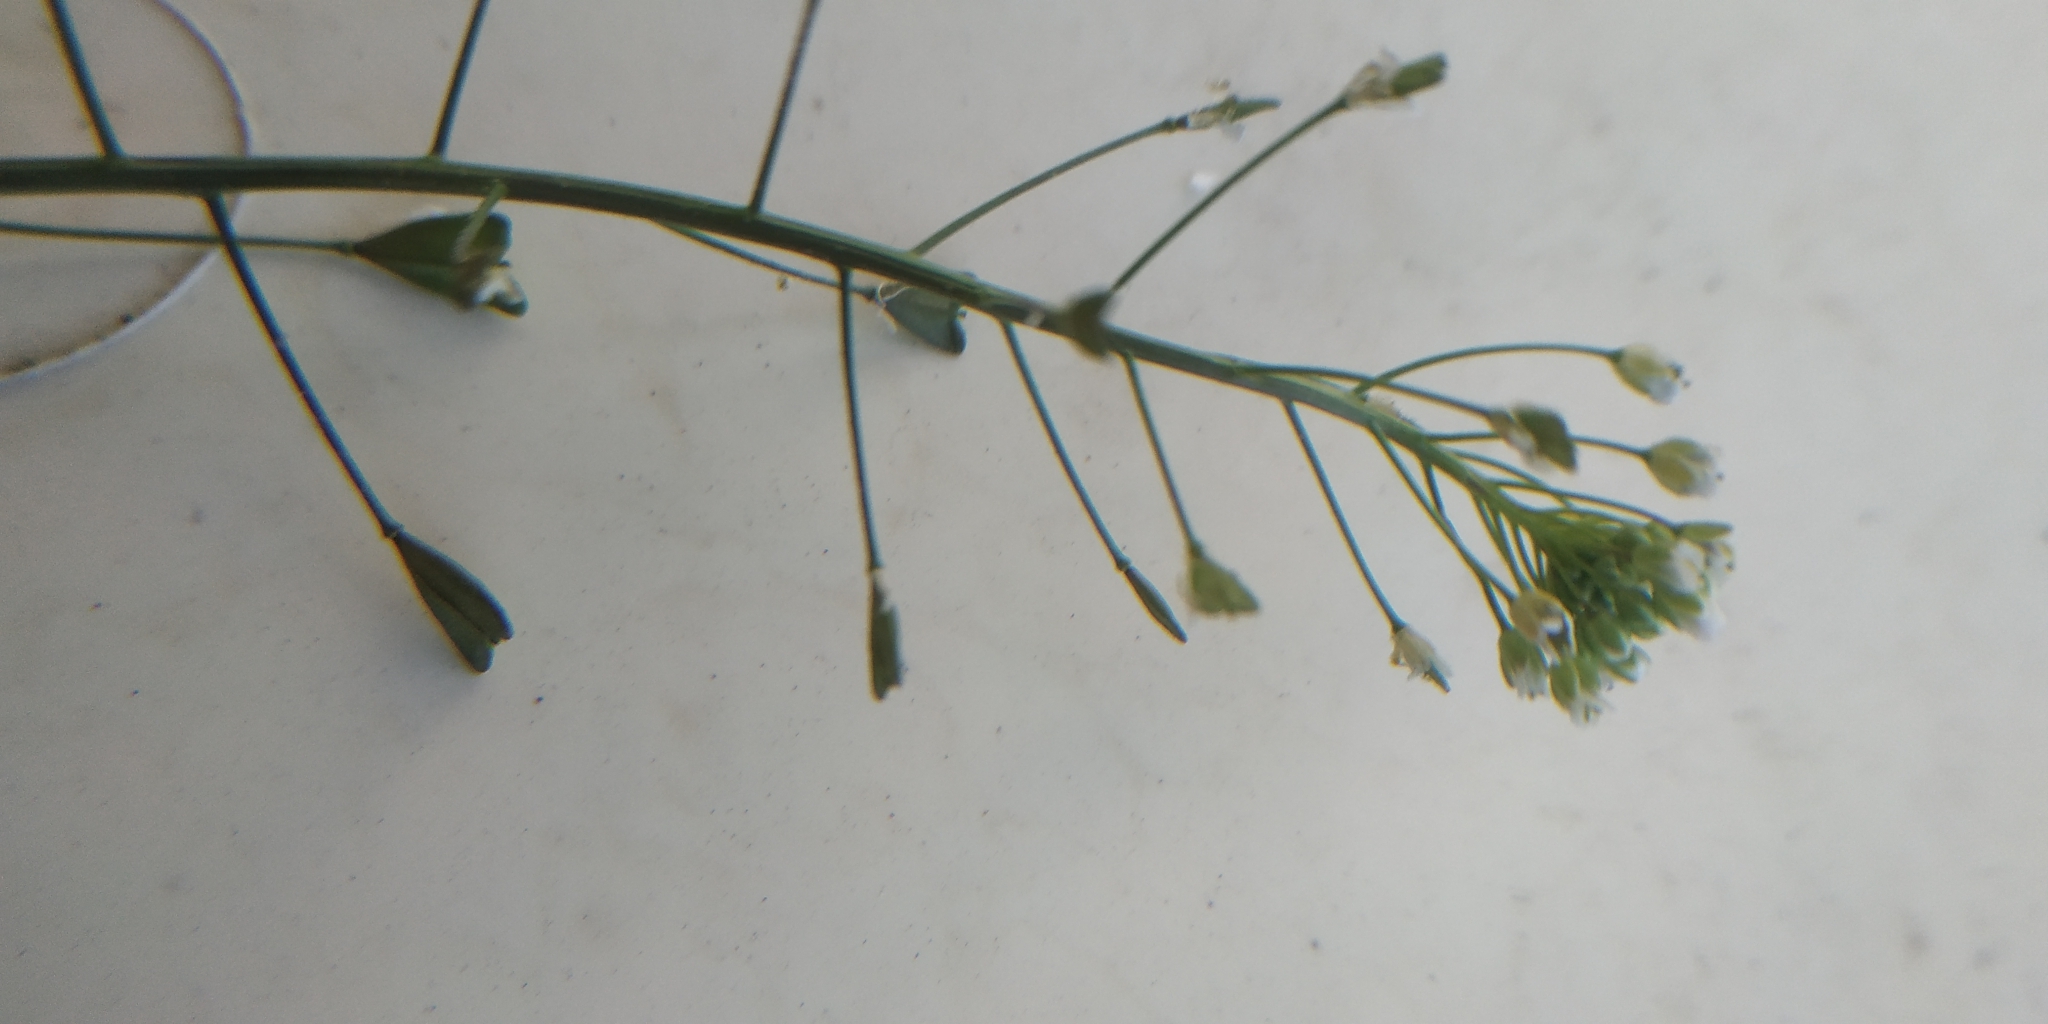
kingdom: Plantae
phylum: Tracheophyta
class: Magnoliopsida
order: Brassicales
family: Brassicaceae
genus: Capsella
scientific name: Capsella orientalis
